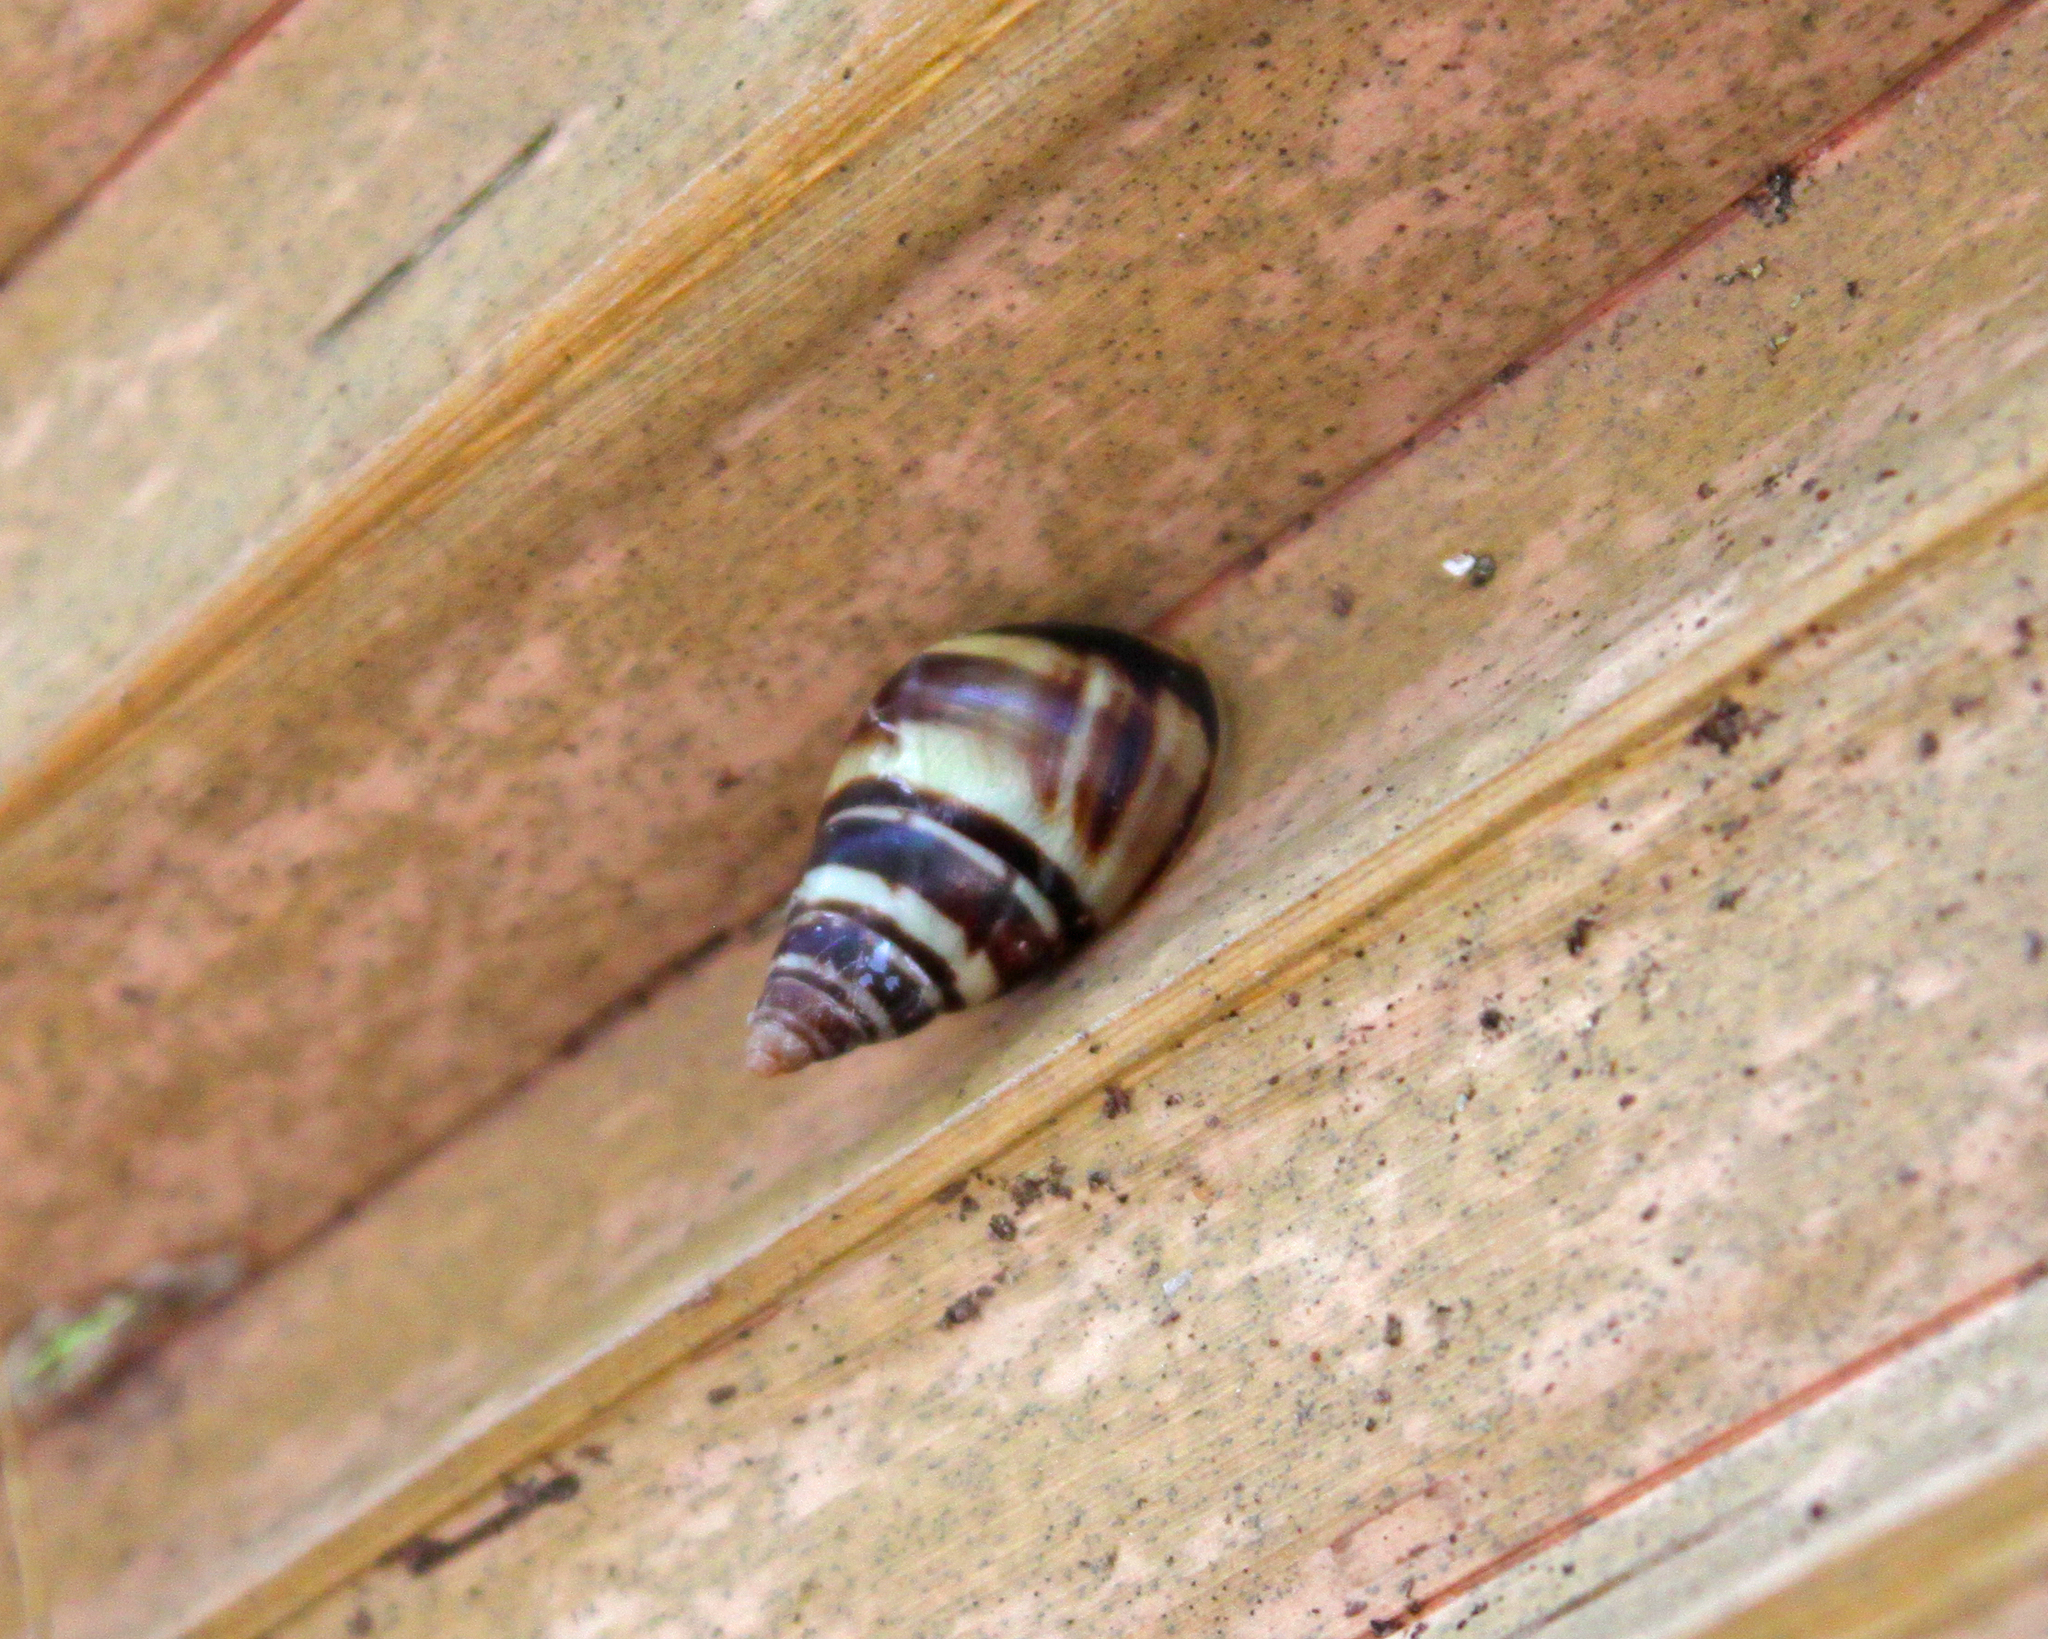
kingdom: Animalia
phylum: Mollusca
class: Gastropoda
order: Stylommatophora
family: Bulimulidae
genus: Drymaeus
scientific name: Drymaeus
